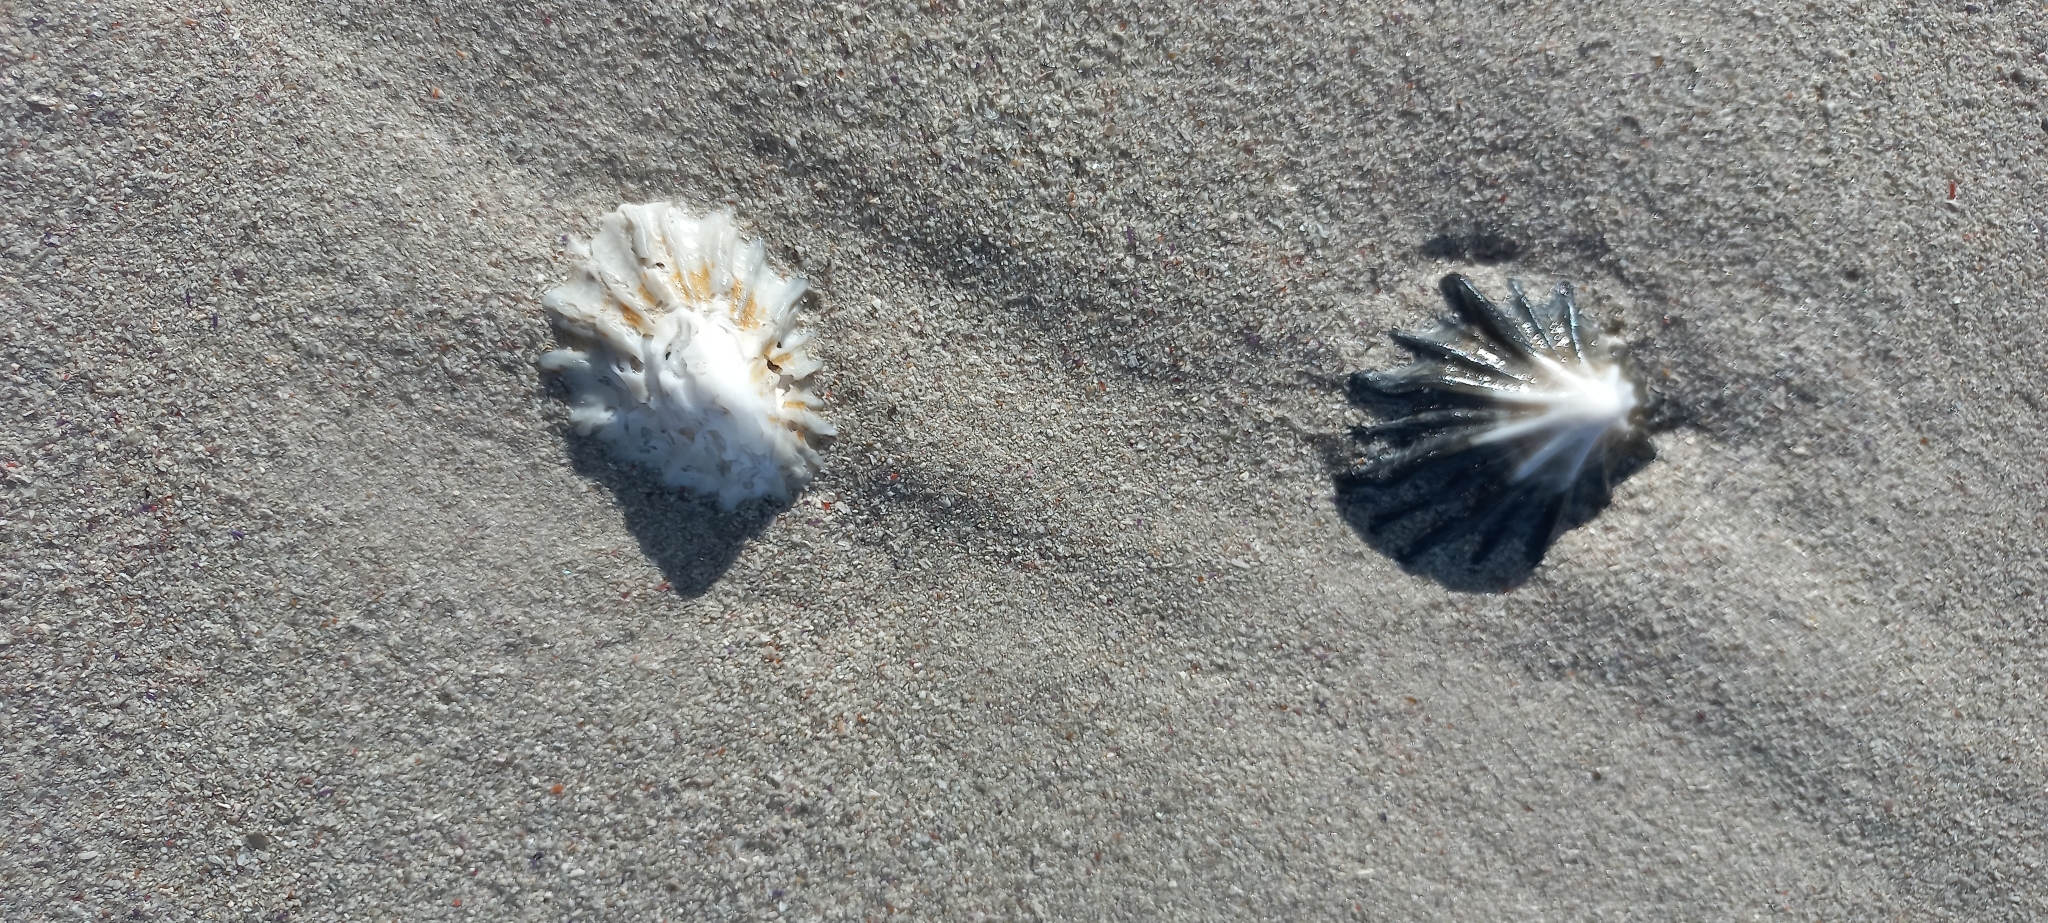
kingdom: Animalia
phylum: Mollusca
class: Gastropoda
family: Patellidae
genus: Cymbula
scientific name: Cymbula oculus
